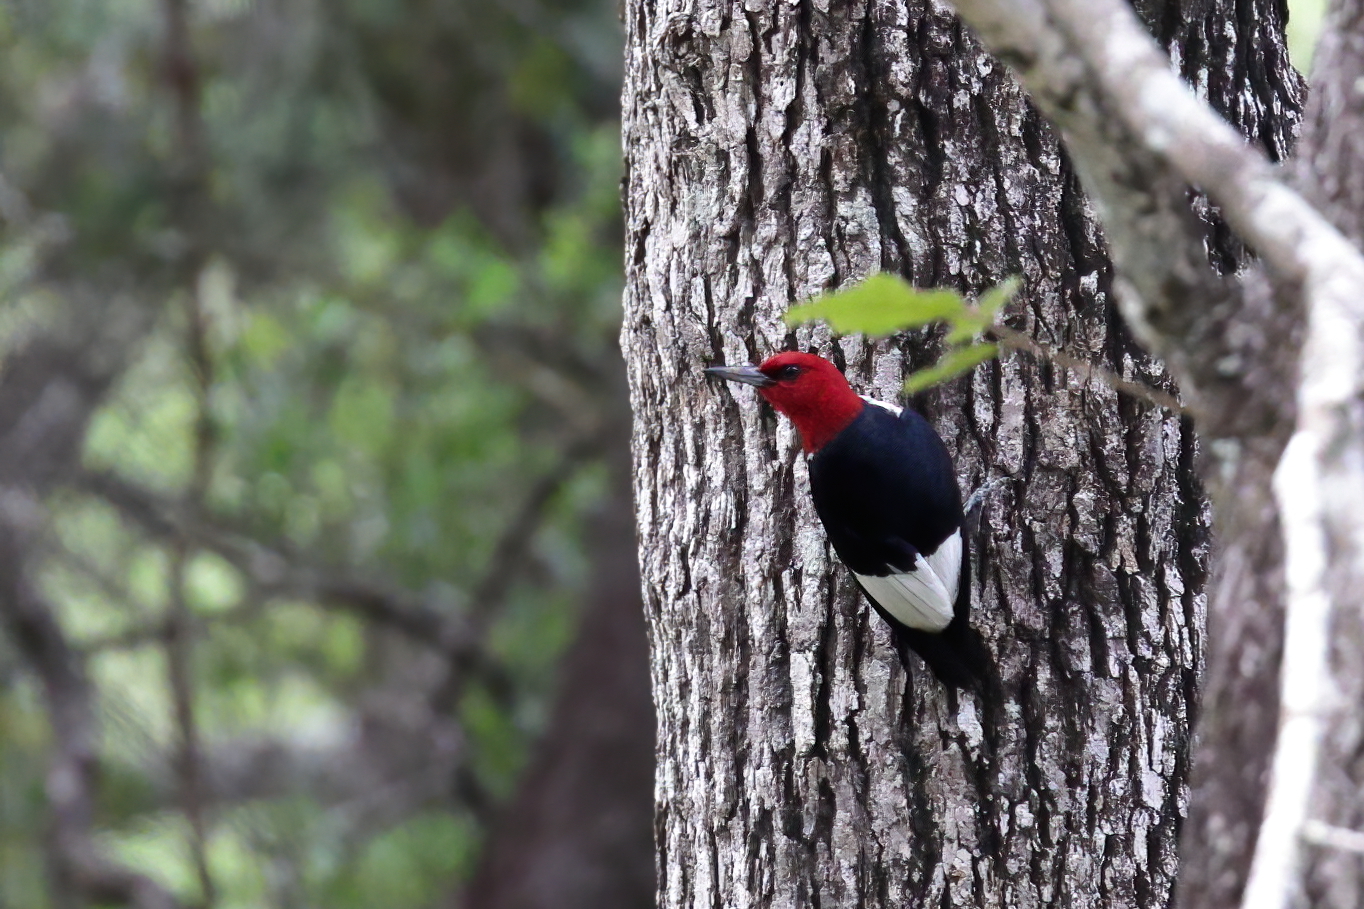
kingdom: Animalia
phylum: Chordata
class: Aves
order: Piciformes
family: Picidae
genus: Melanerpes
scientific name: Melanerpes erythrocephalus
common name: Red-headed woodpecker
